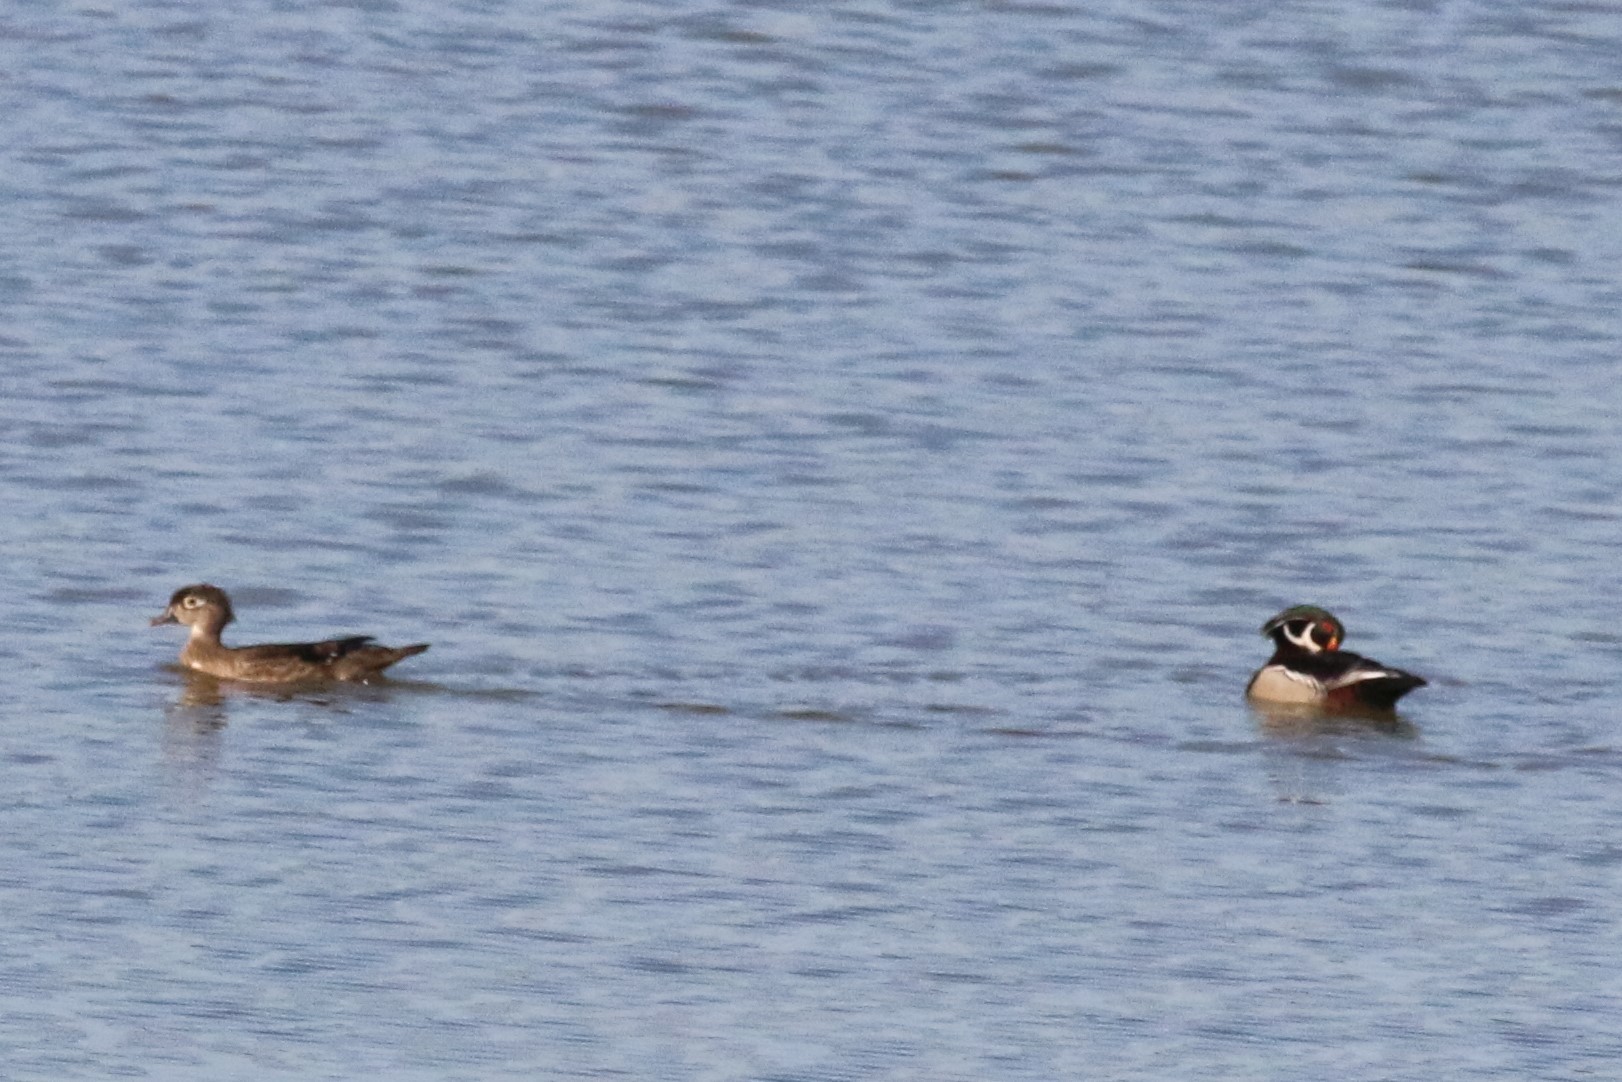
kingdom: Animalia
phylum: Chordata
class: Aves
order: Anseriformes
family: Anatidae
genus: Aix
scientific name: Aix sponsa
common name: Wood duck
